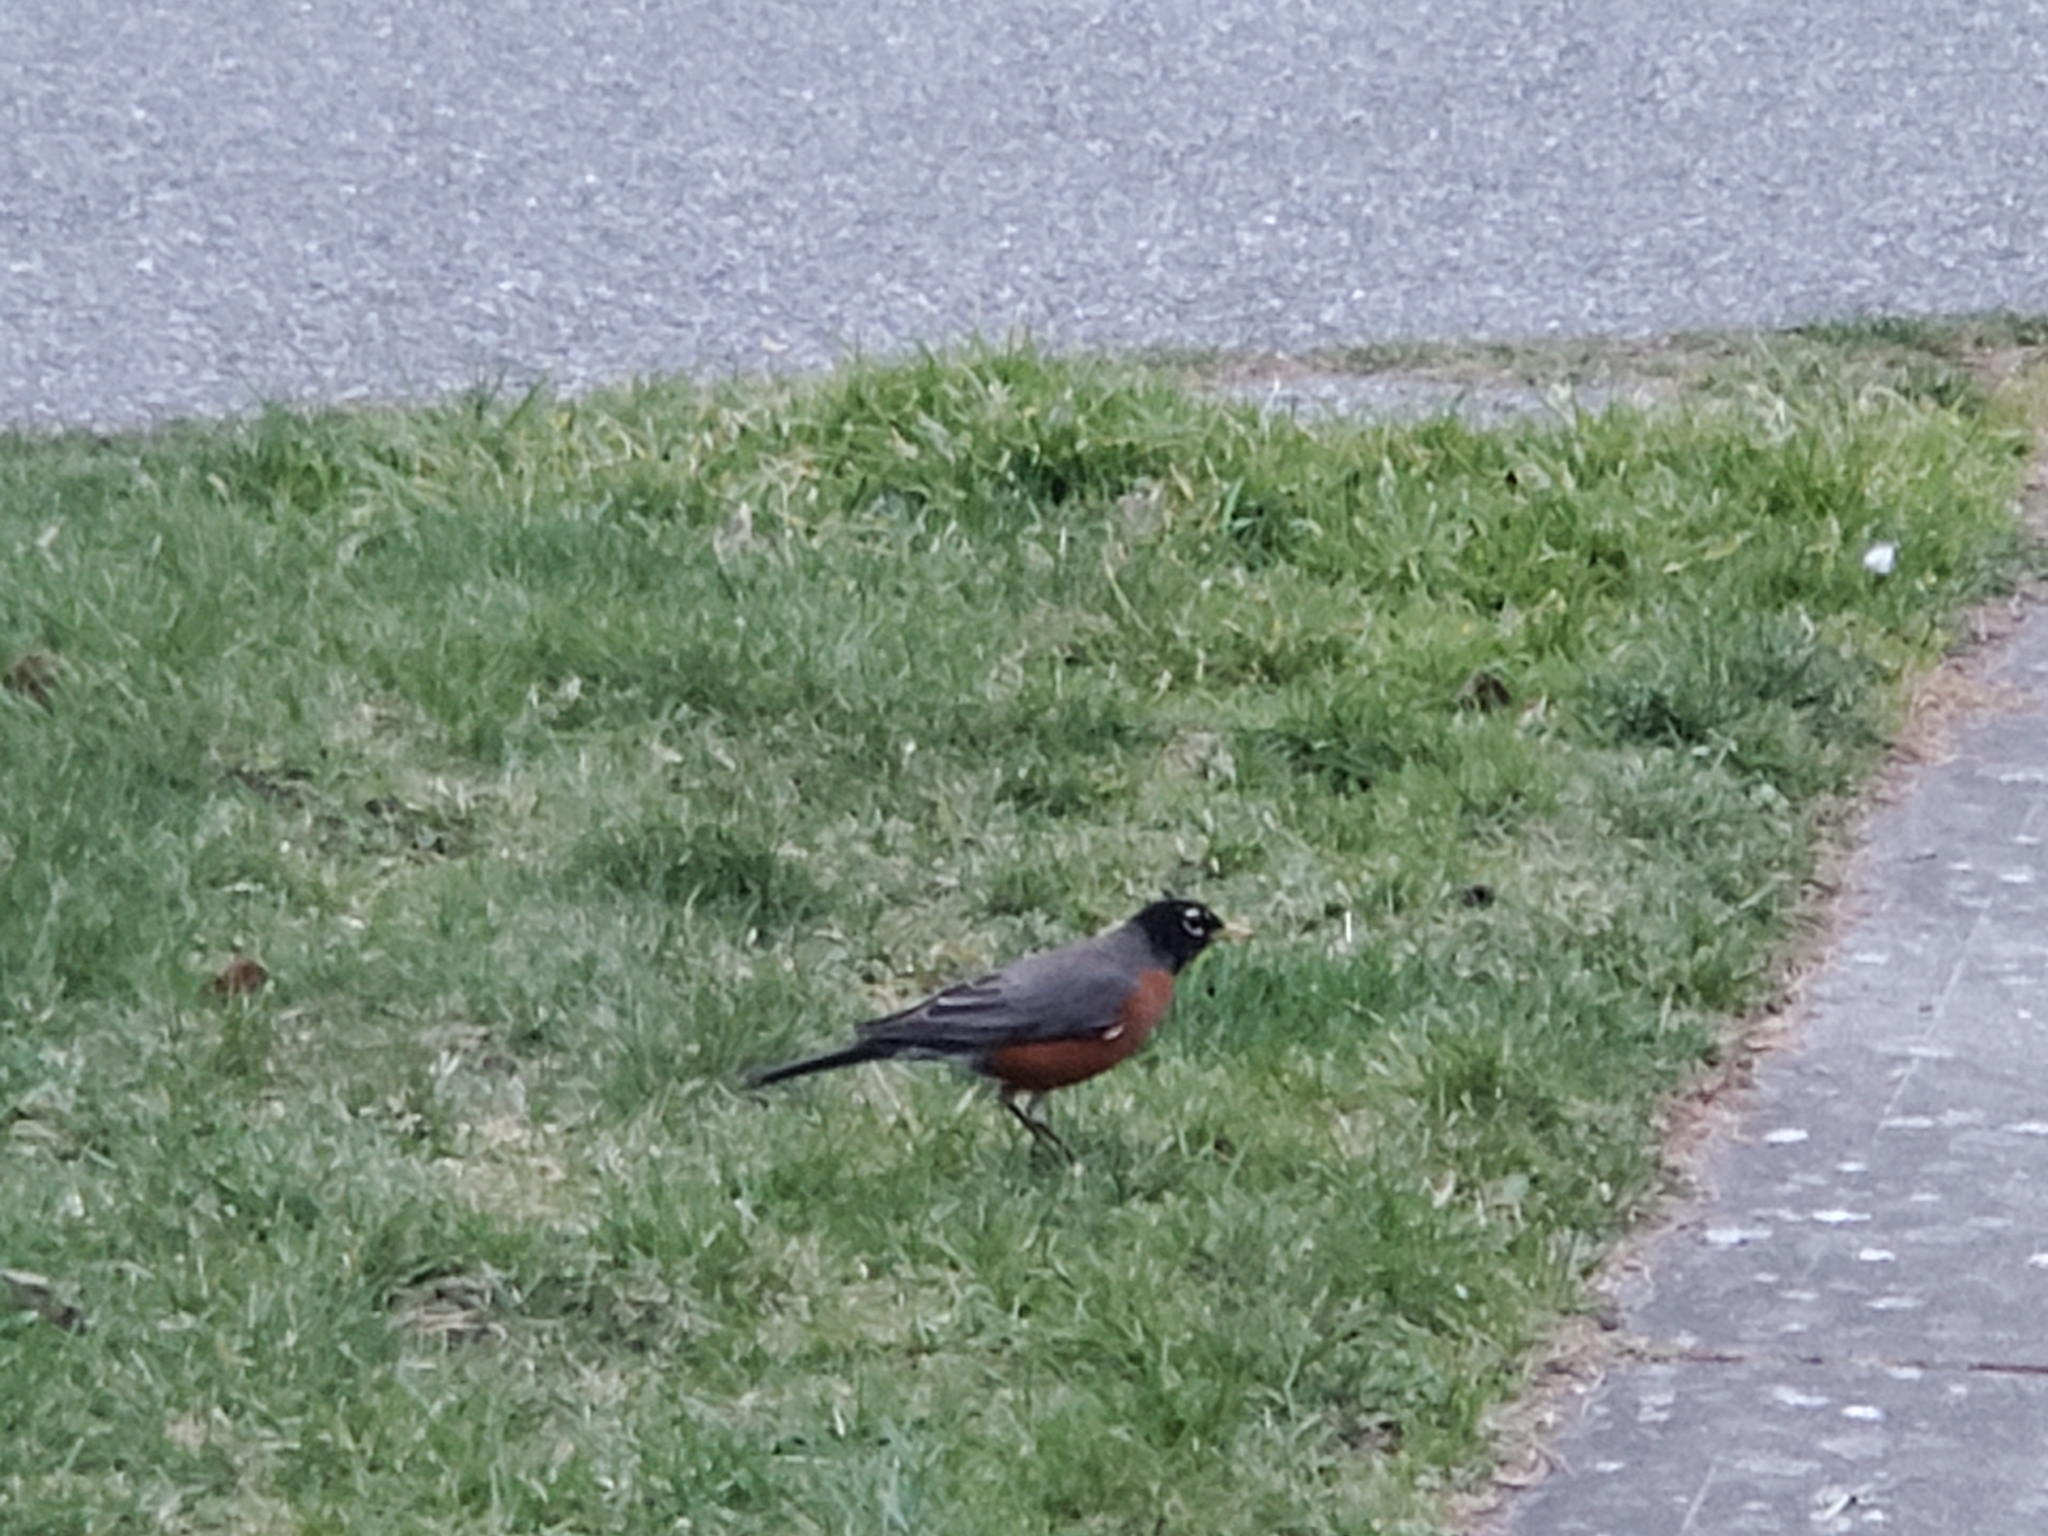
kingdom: Animalia
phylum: Chordata
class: Aves
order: Passeriformes
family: Turdidae
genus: Turdus
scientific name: Turdus migratorius
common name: American robin
